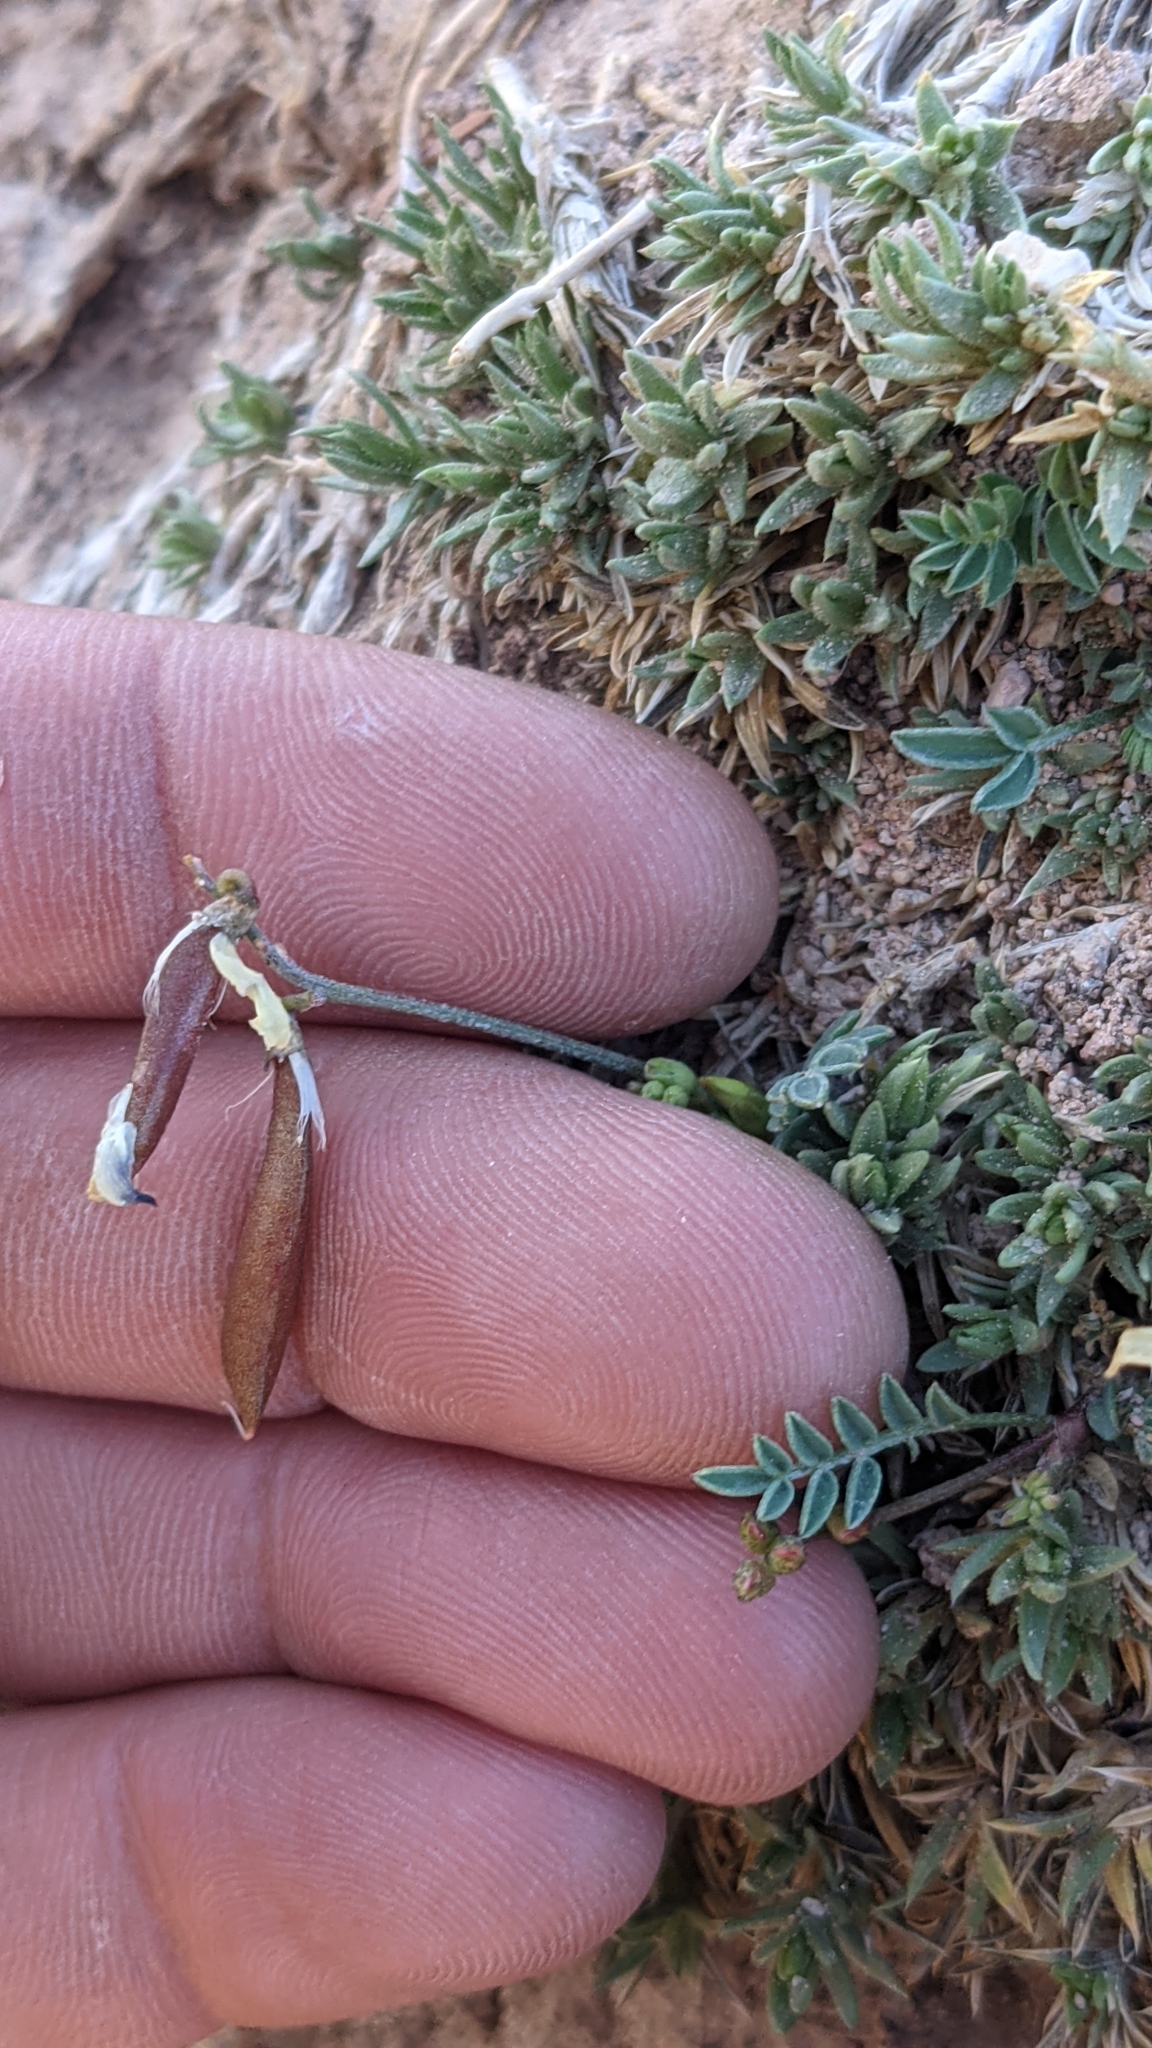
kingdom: Plantae
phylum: Tracheophyta
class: Magnoliopsida
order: Fabales
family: Fabaceae
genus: Astragalus
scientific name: Astragalus miser
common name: Timber milkvetch
